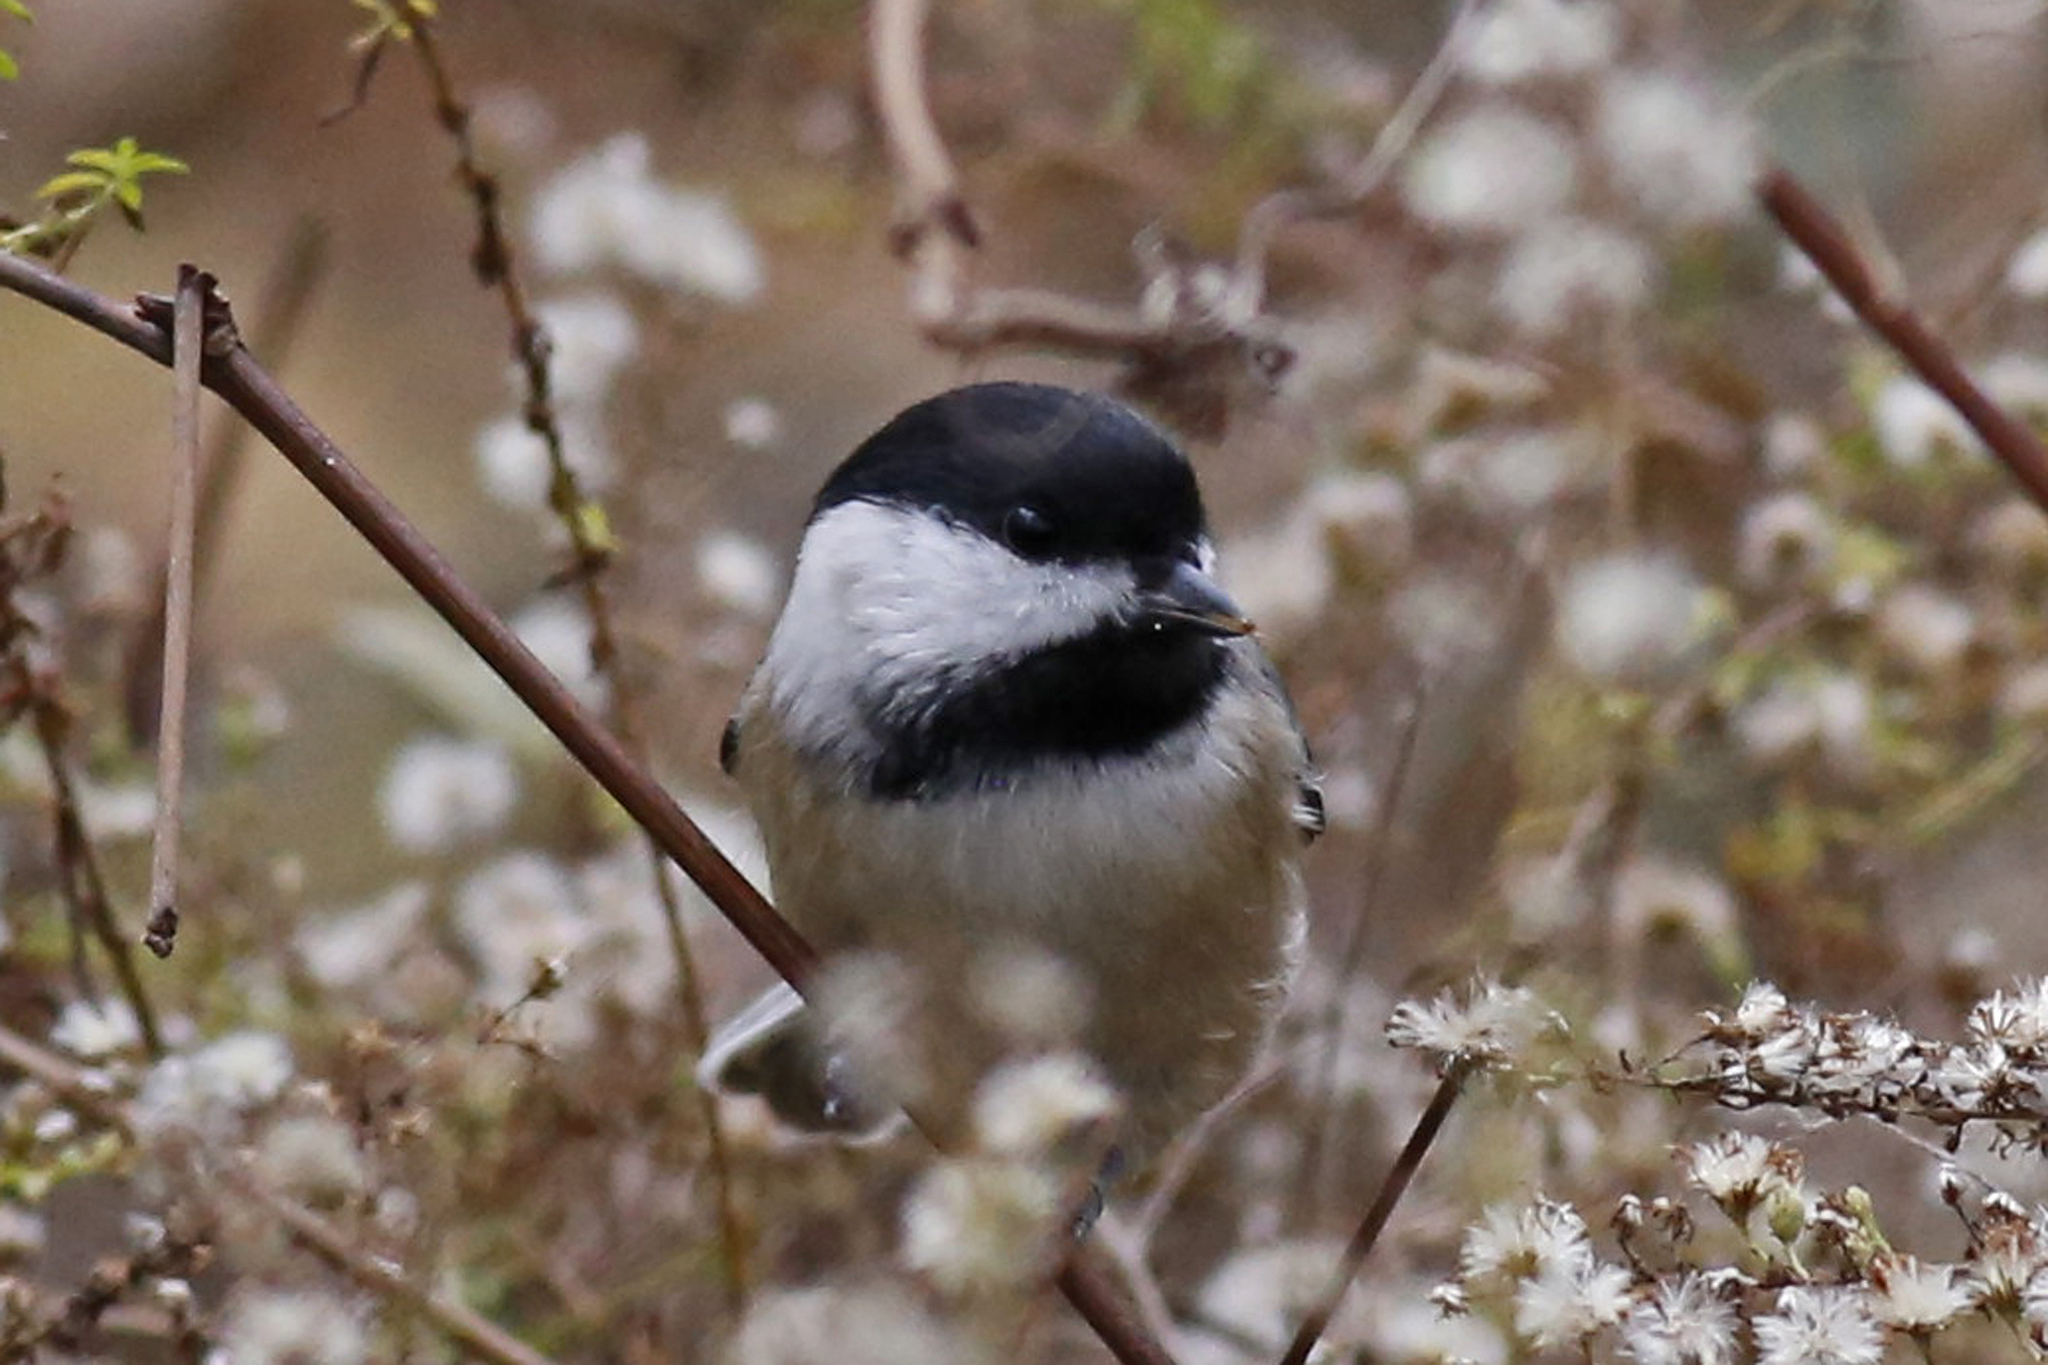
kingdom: Animalia
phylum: Chordata
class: Aves
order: Passeriformes
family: Paridae
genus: Poecile
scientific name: Poecile atricapillus
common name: Black-capped chickadee
